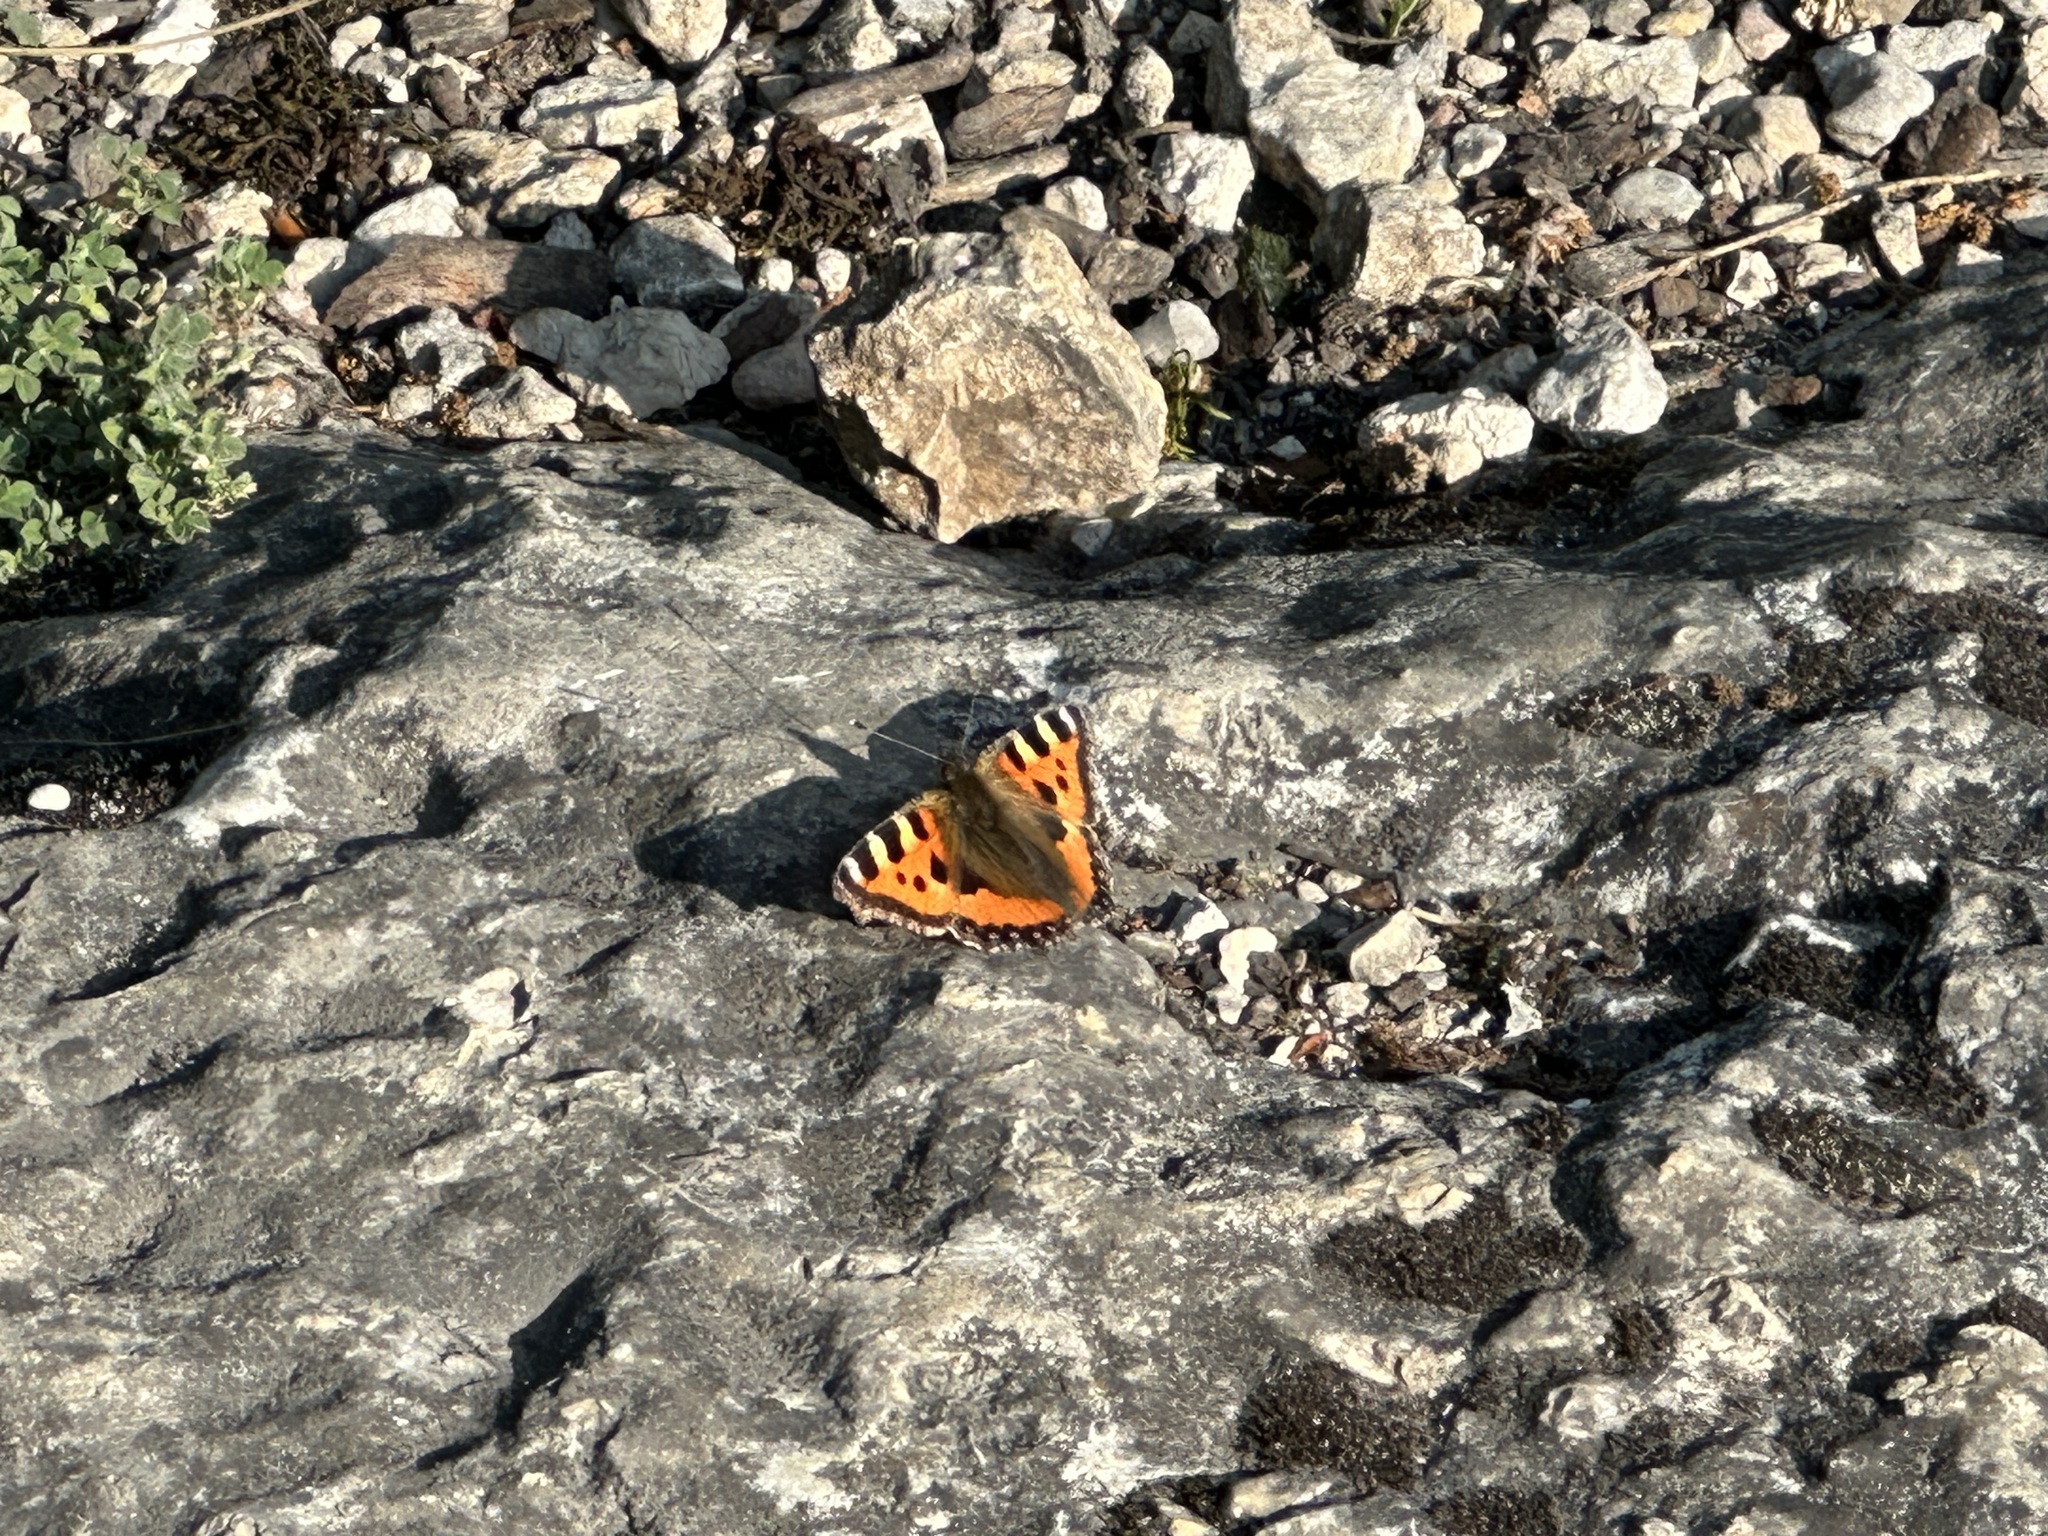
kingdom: Animalia
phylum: Arthropoda
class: Insecta
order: Lepidoptera
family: Nymphalidae
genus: Aglais
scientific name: Aglais urticae
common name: Small tortoiseshell
